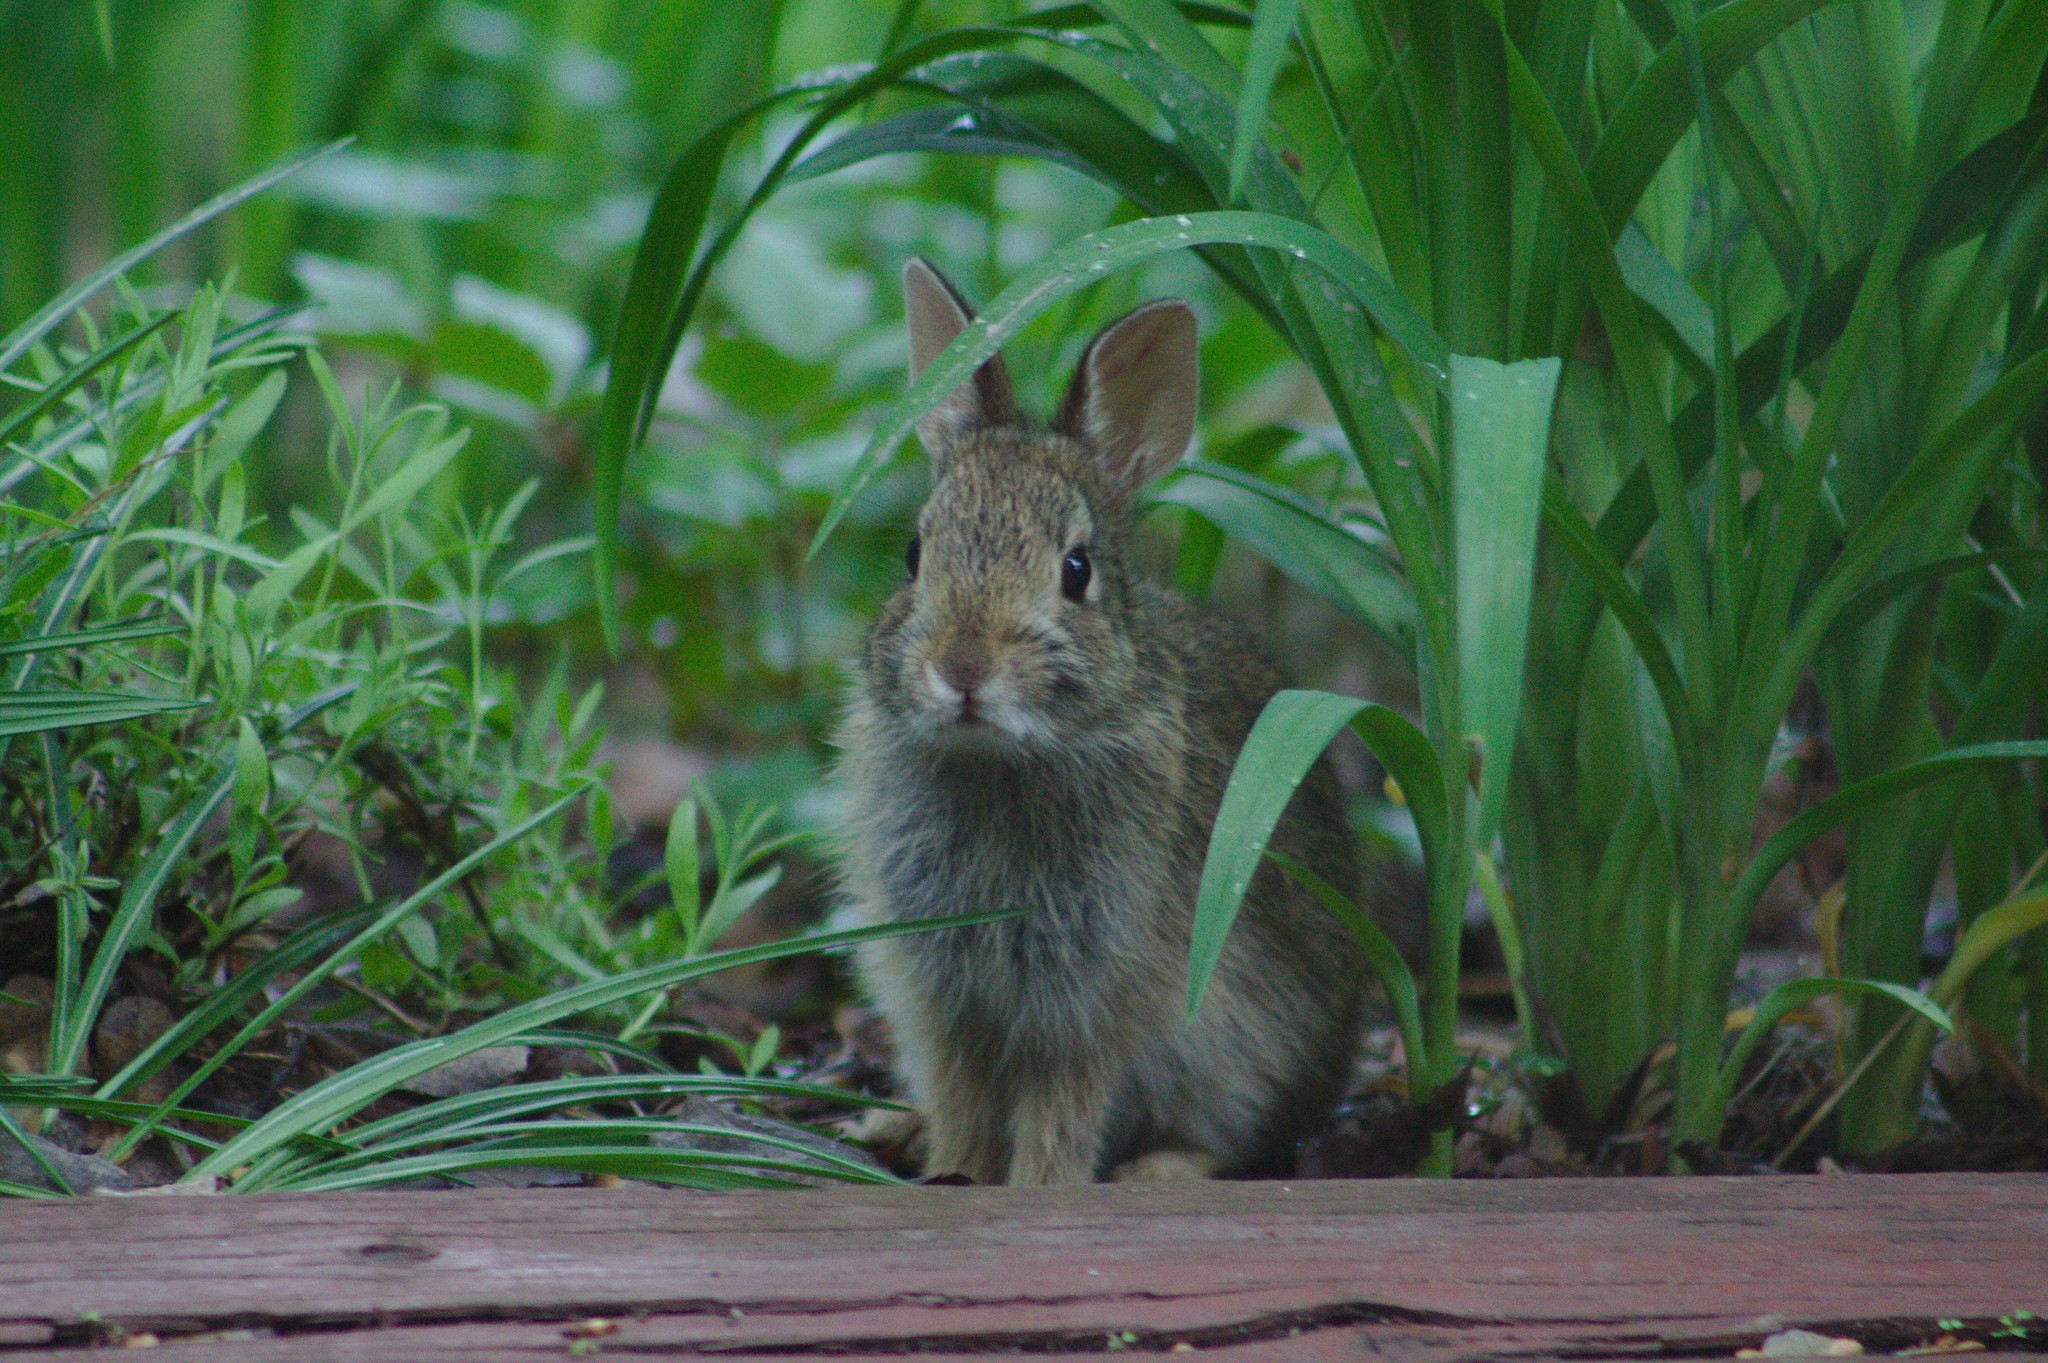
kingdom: Animalia
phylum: Chordata
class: Mammalia
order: Lagomorpha
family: Leporidae
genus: Sylvilagus
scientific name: Sylvilagus floridanus
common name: Eastern cottontail
